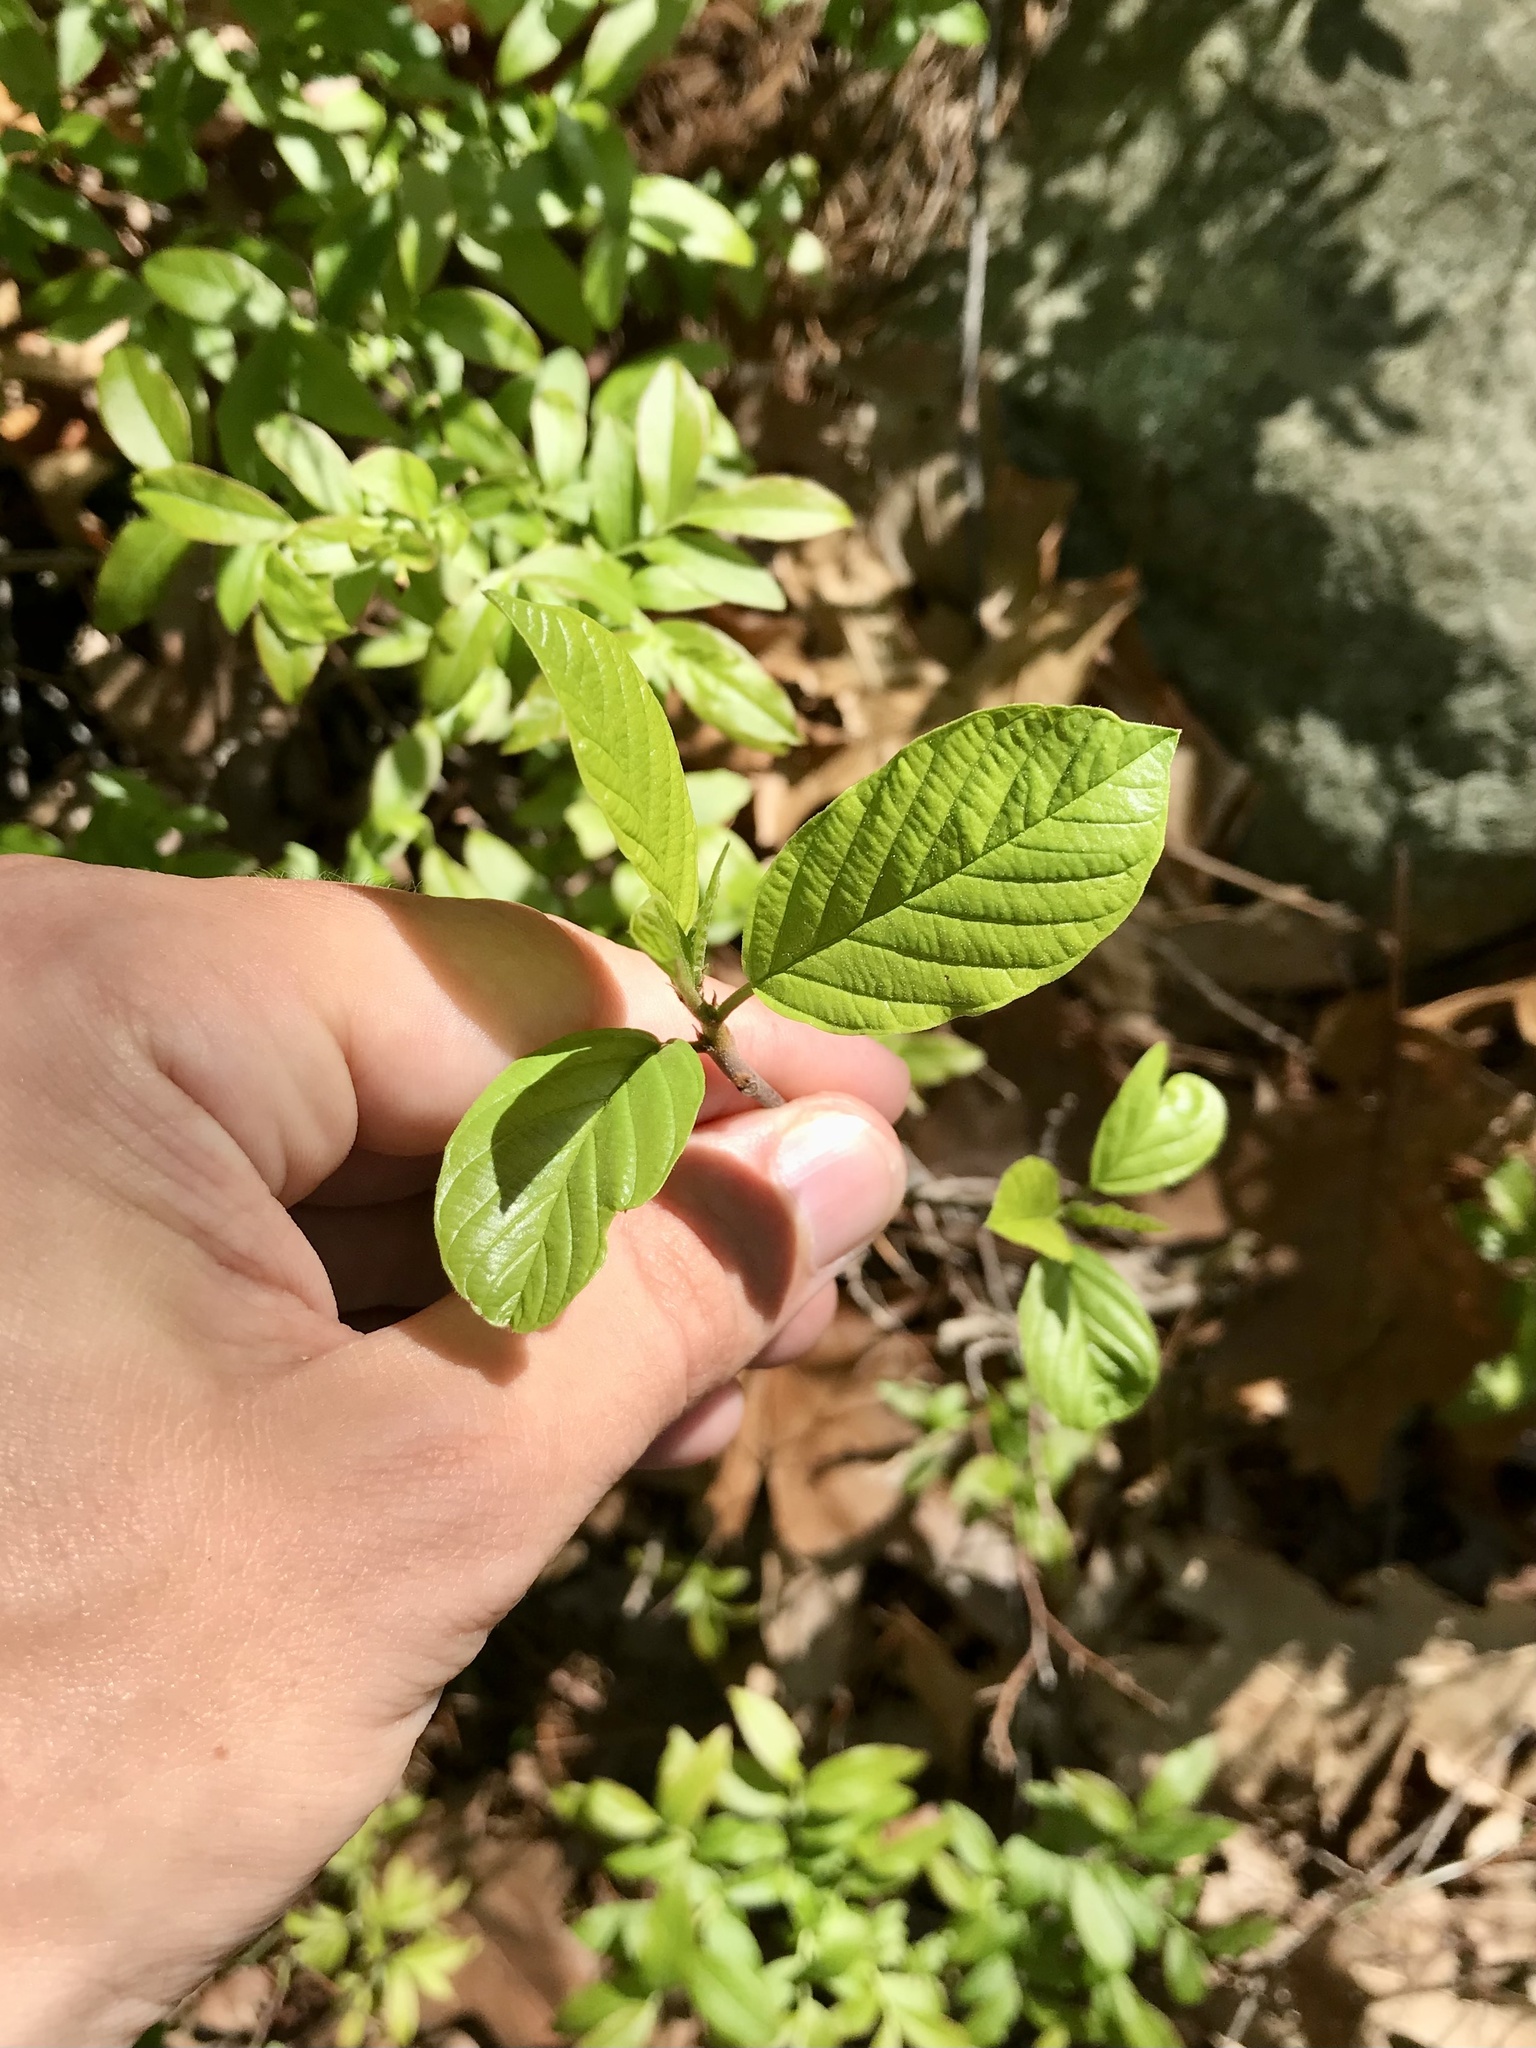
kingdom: Plantae
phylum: Tracheophyta
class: Magnoliopsida
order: Rosales
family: Rhamnaceae
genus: Frangula
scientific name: Frangula alnus
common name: Alder buckthorn
